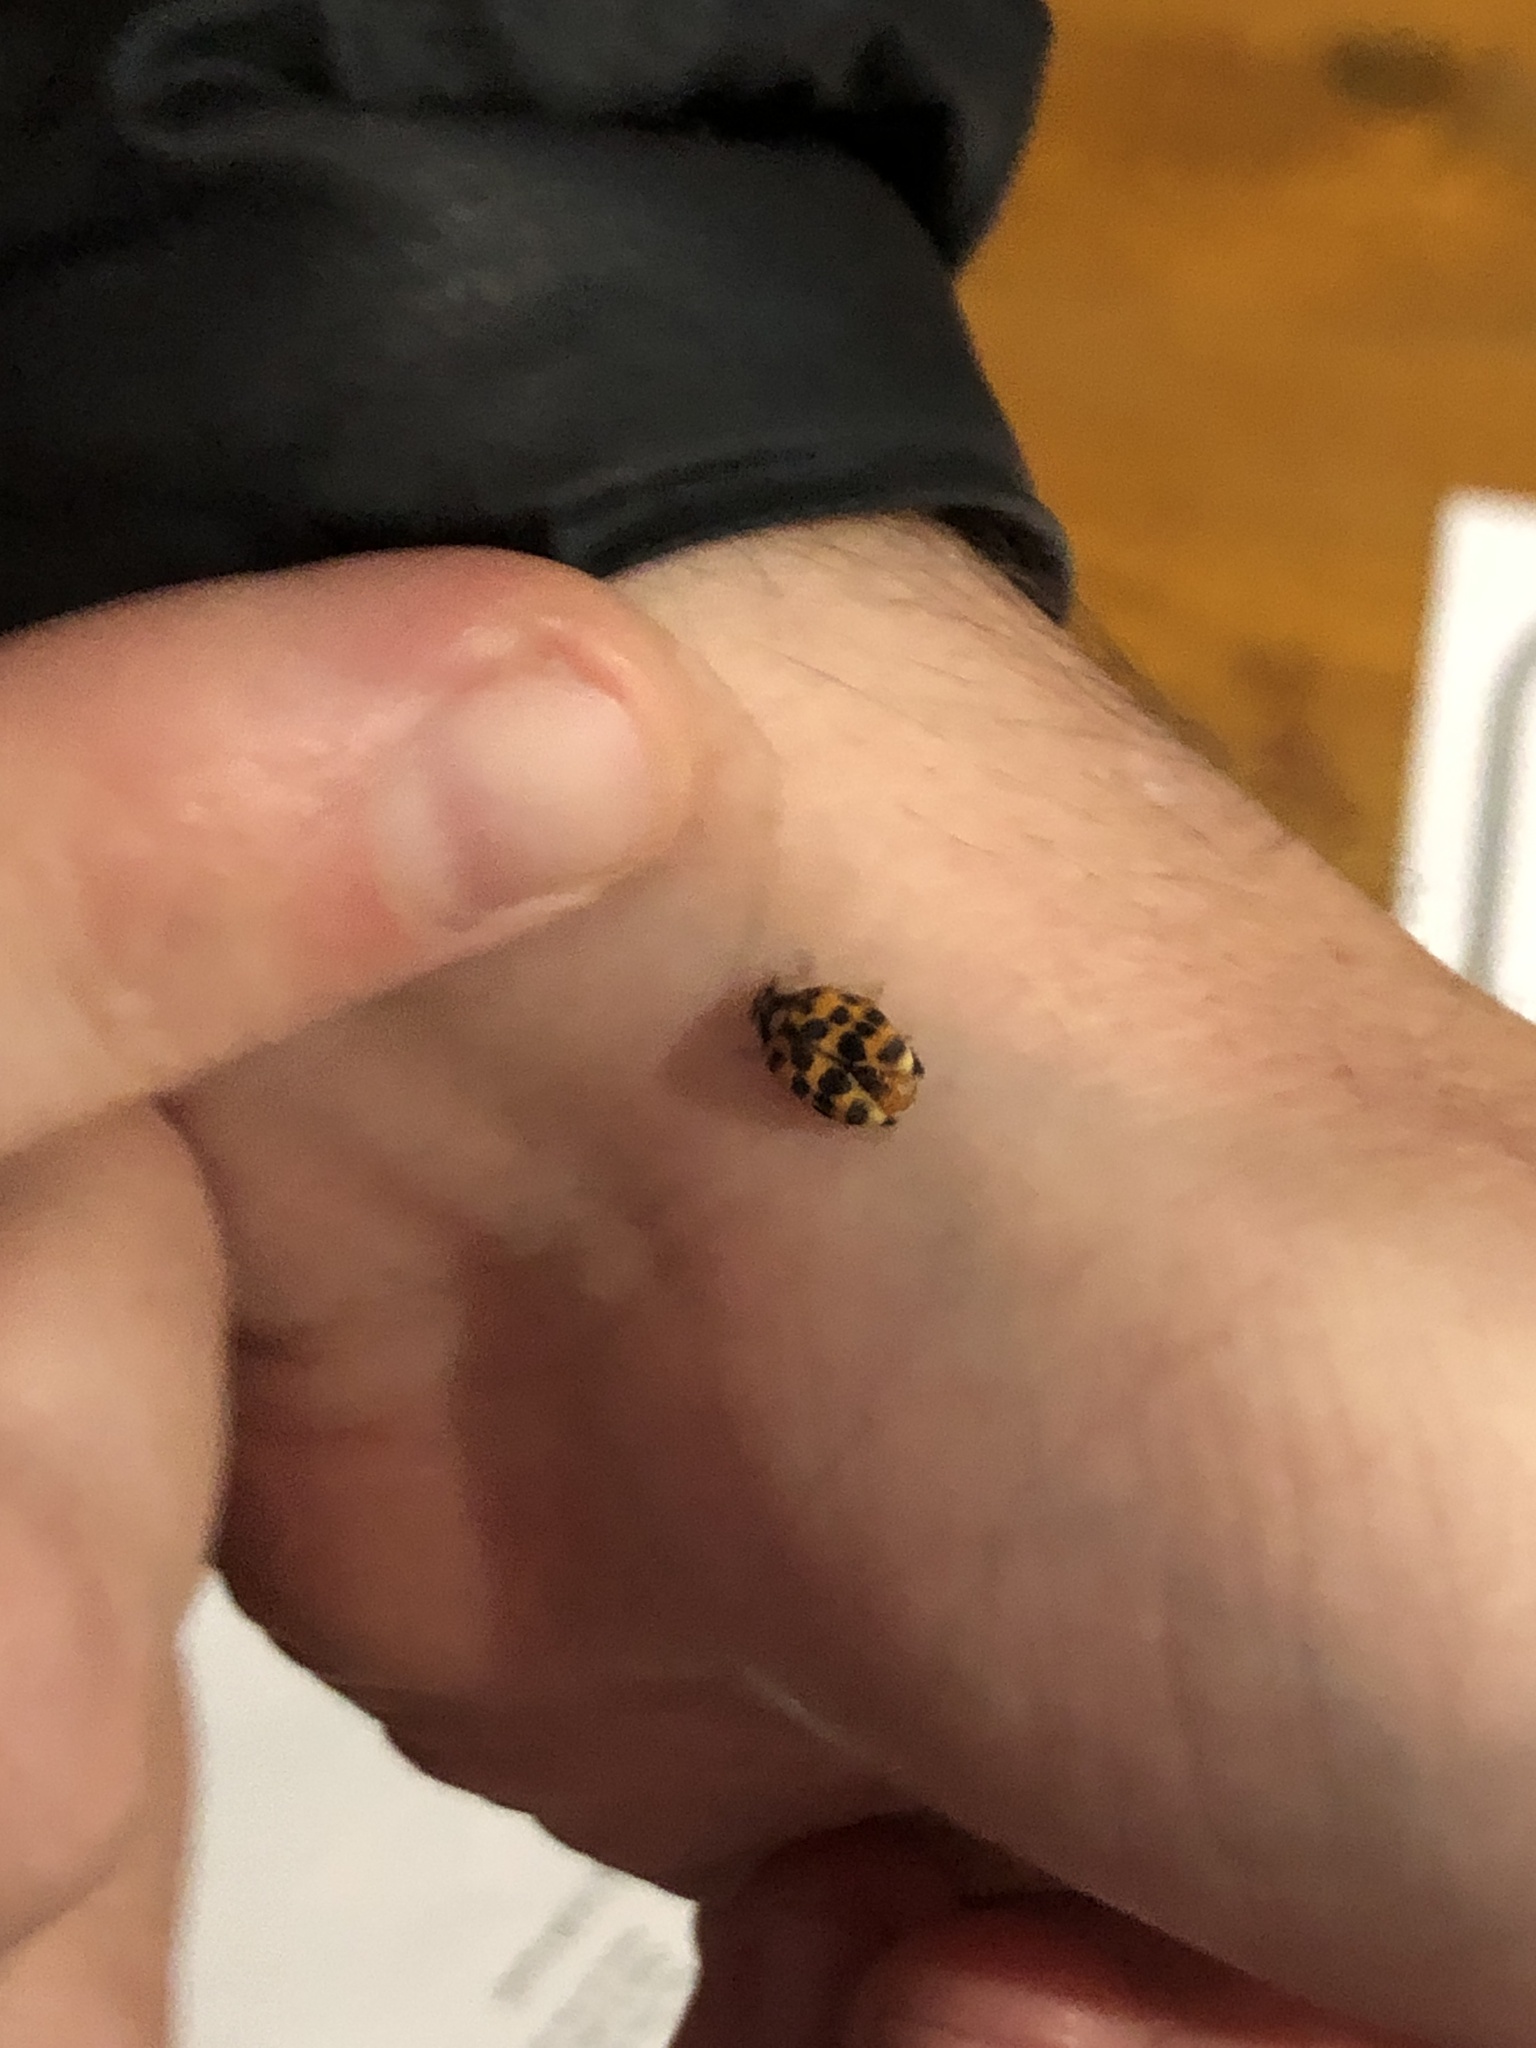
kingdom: Animalia
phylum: Arthropoda
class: Insecta
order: Coleoptera
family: Coccinellidae
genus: Harmonia
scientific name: Harmonia axyridis
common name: Harlequin ladybird
